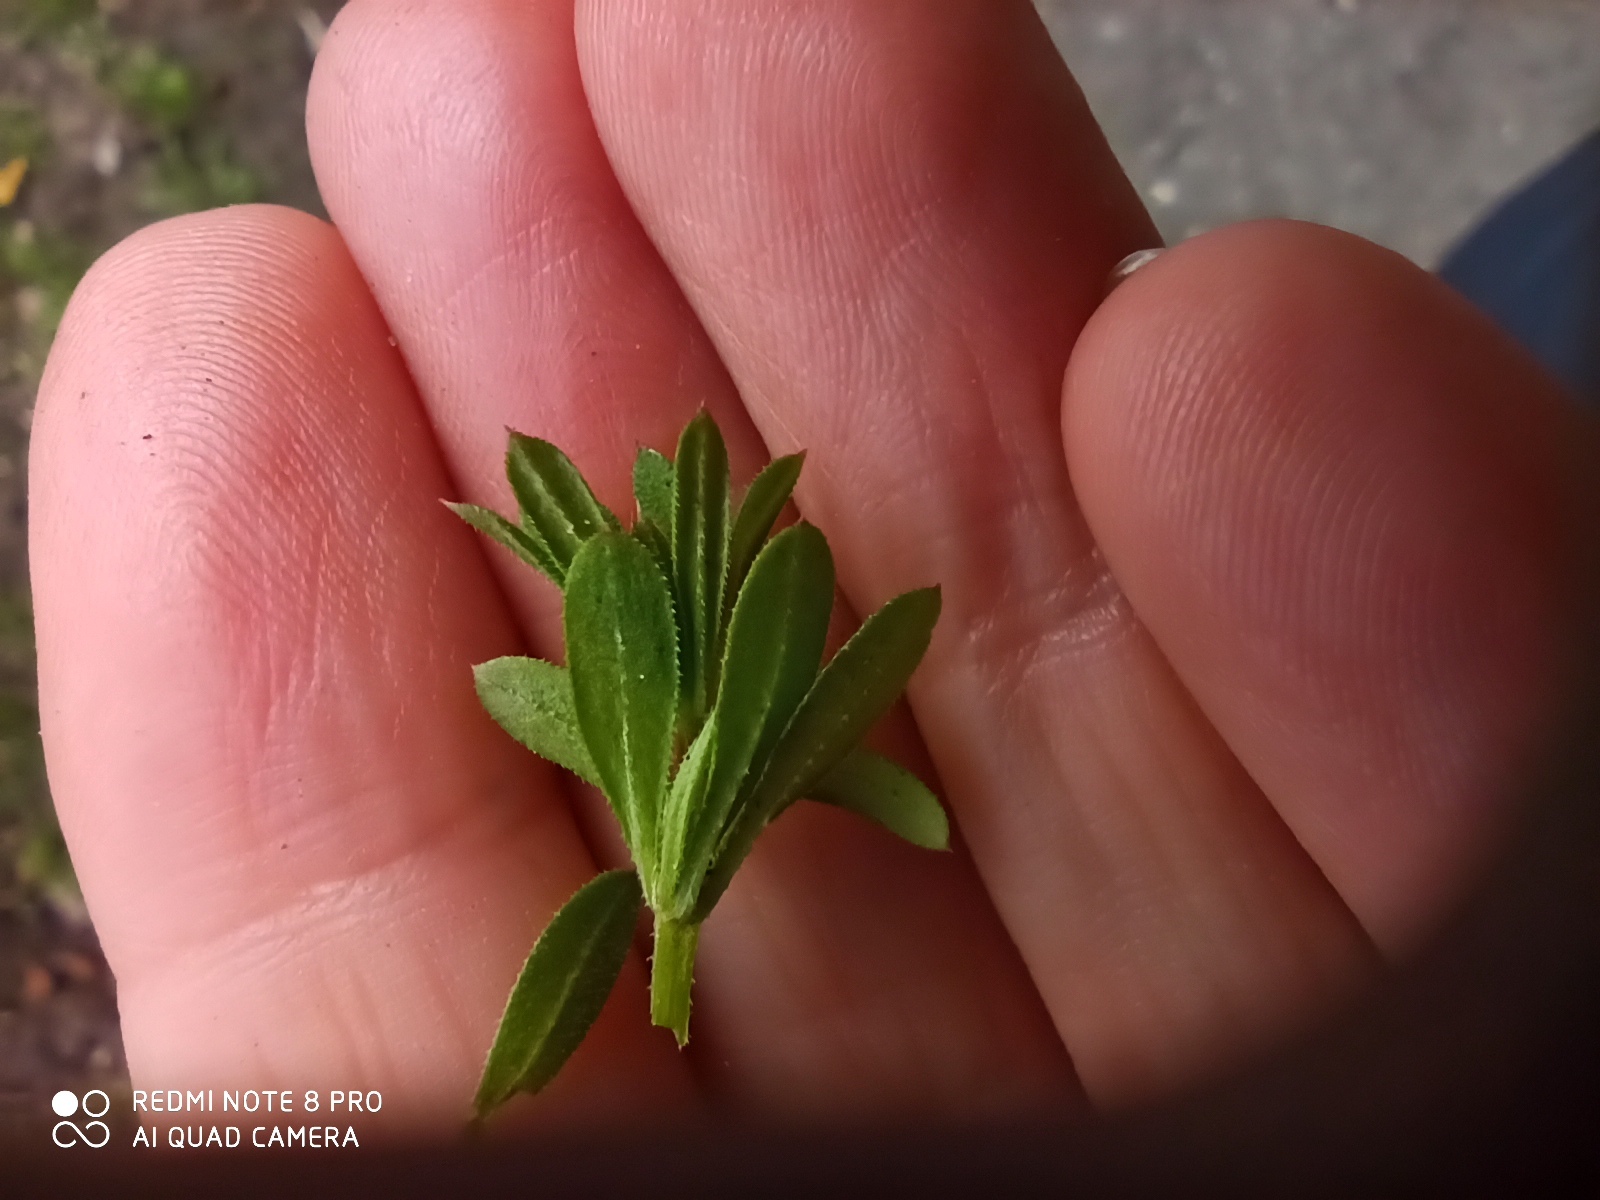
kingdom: Plantae
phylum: Tracheophyta
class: Magnoliopsida
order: Gentianales
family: Rubiaceae
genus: Galium
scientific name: Galium aparine
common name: Cleavers
